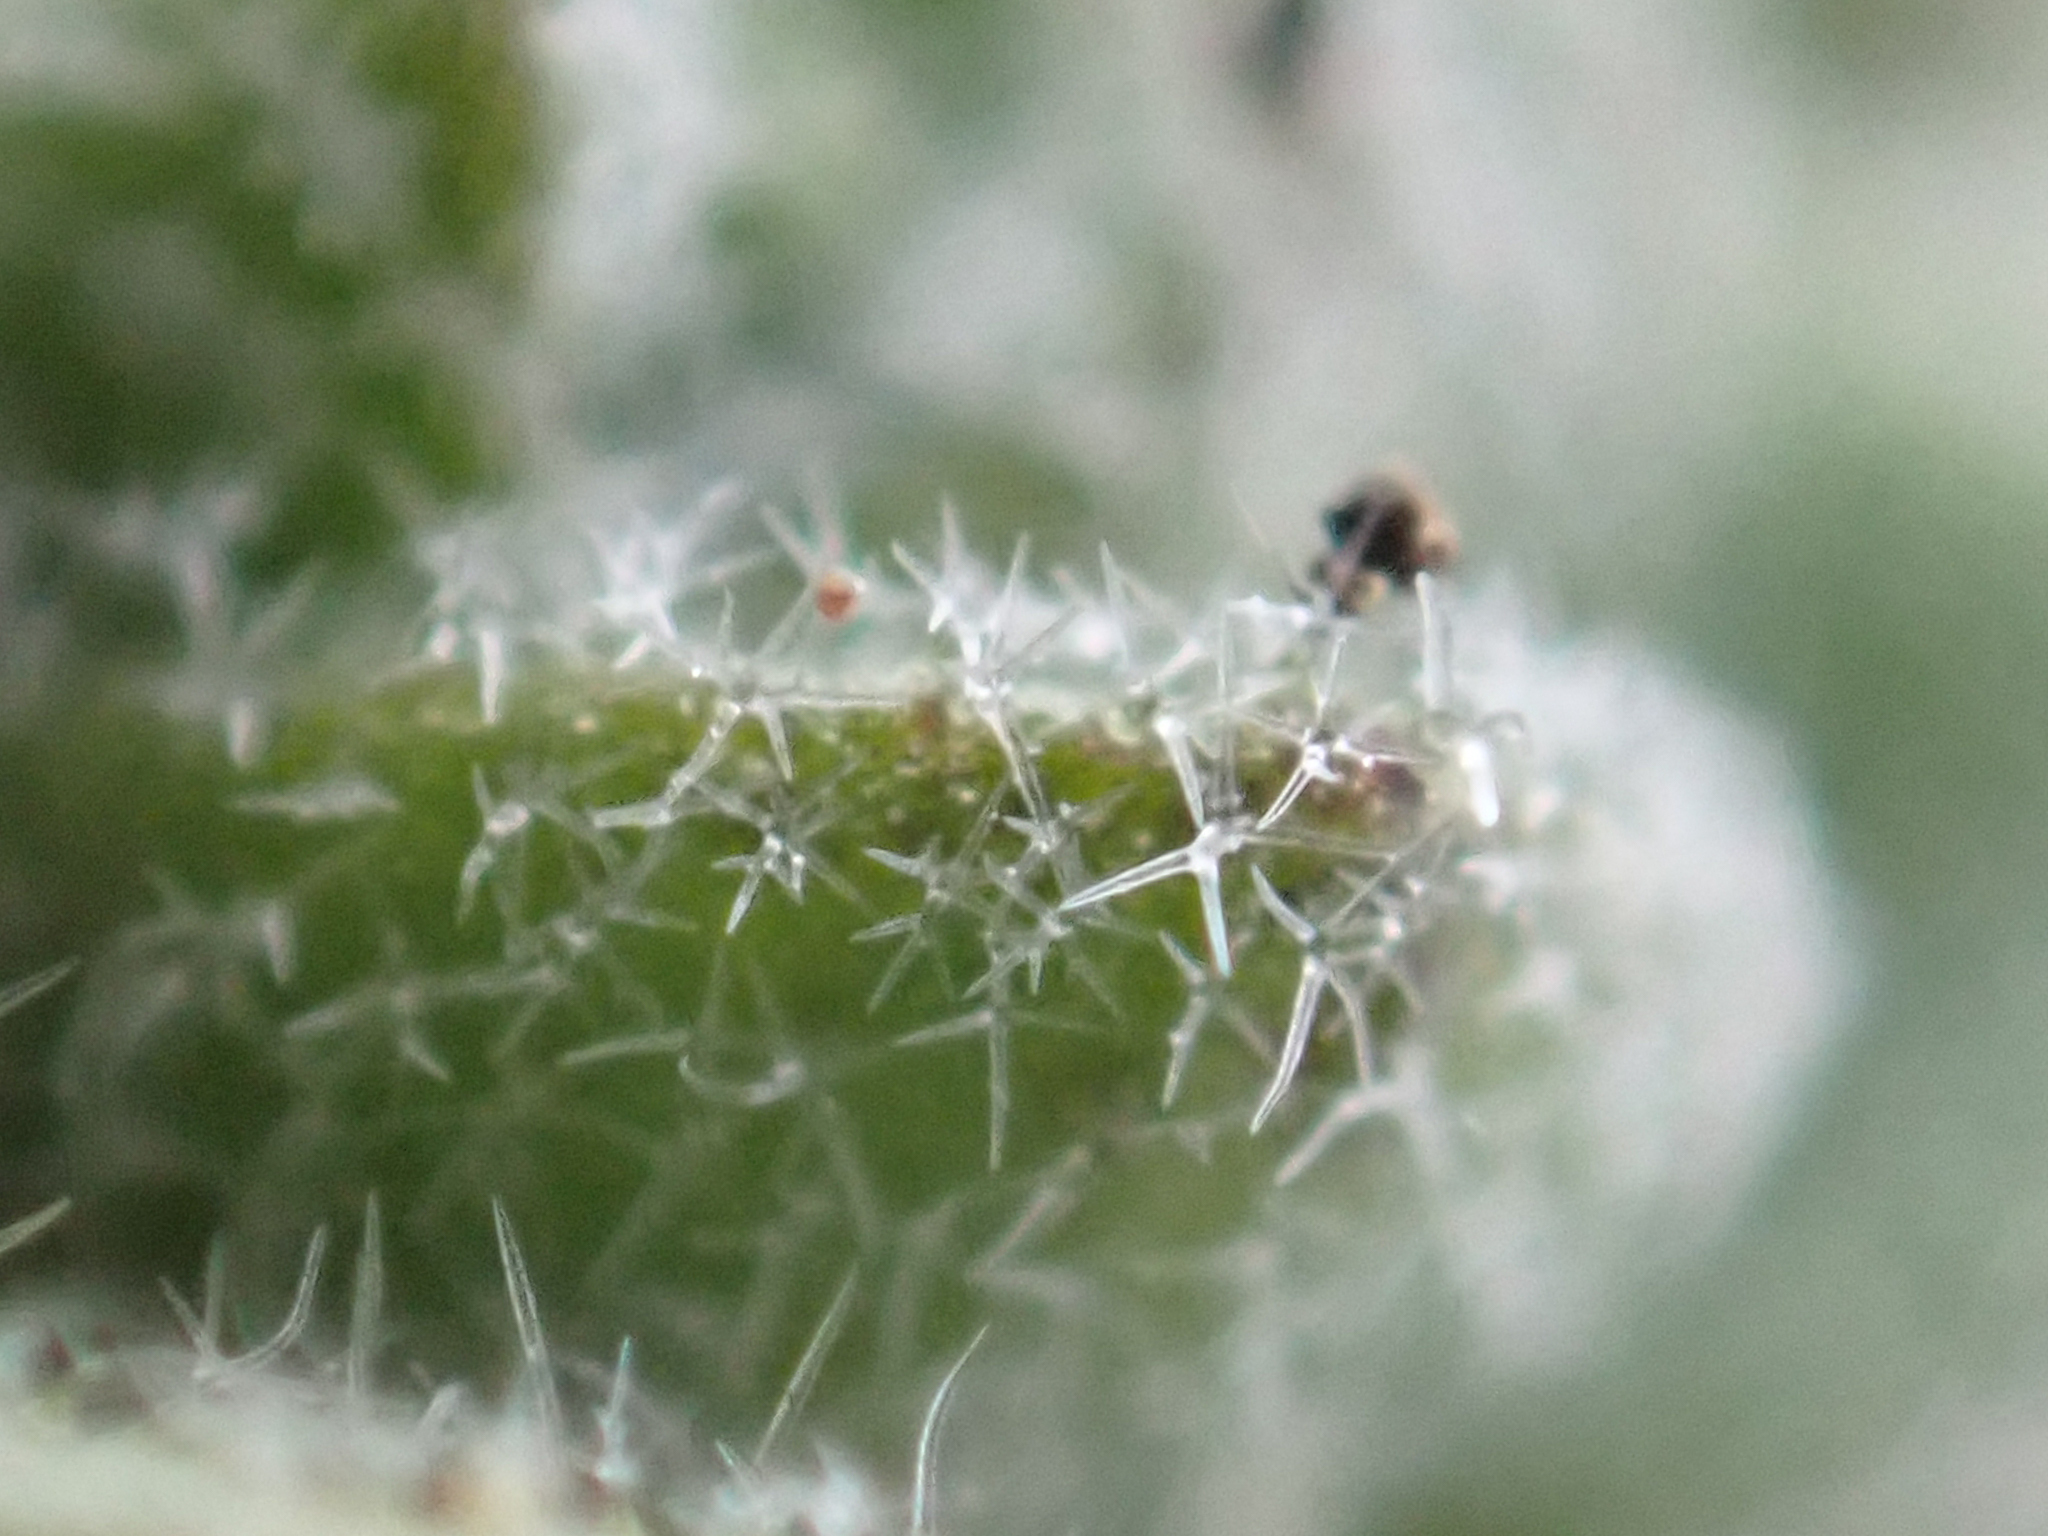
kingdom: Plantae
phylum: Tracheophyta
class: Magnoliopsida
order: Brassicales
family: Brassicaceae
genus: Draba
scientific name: Draba oligosperma
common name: Few-seed draba
